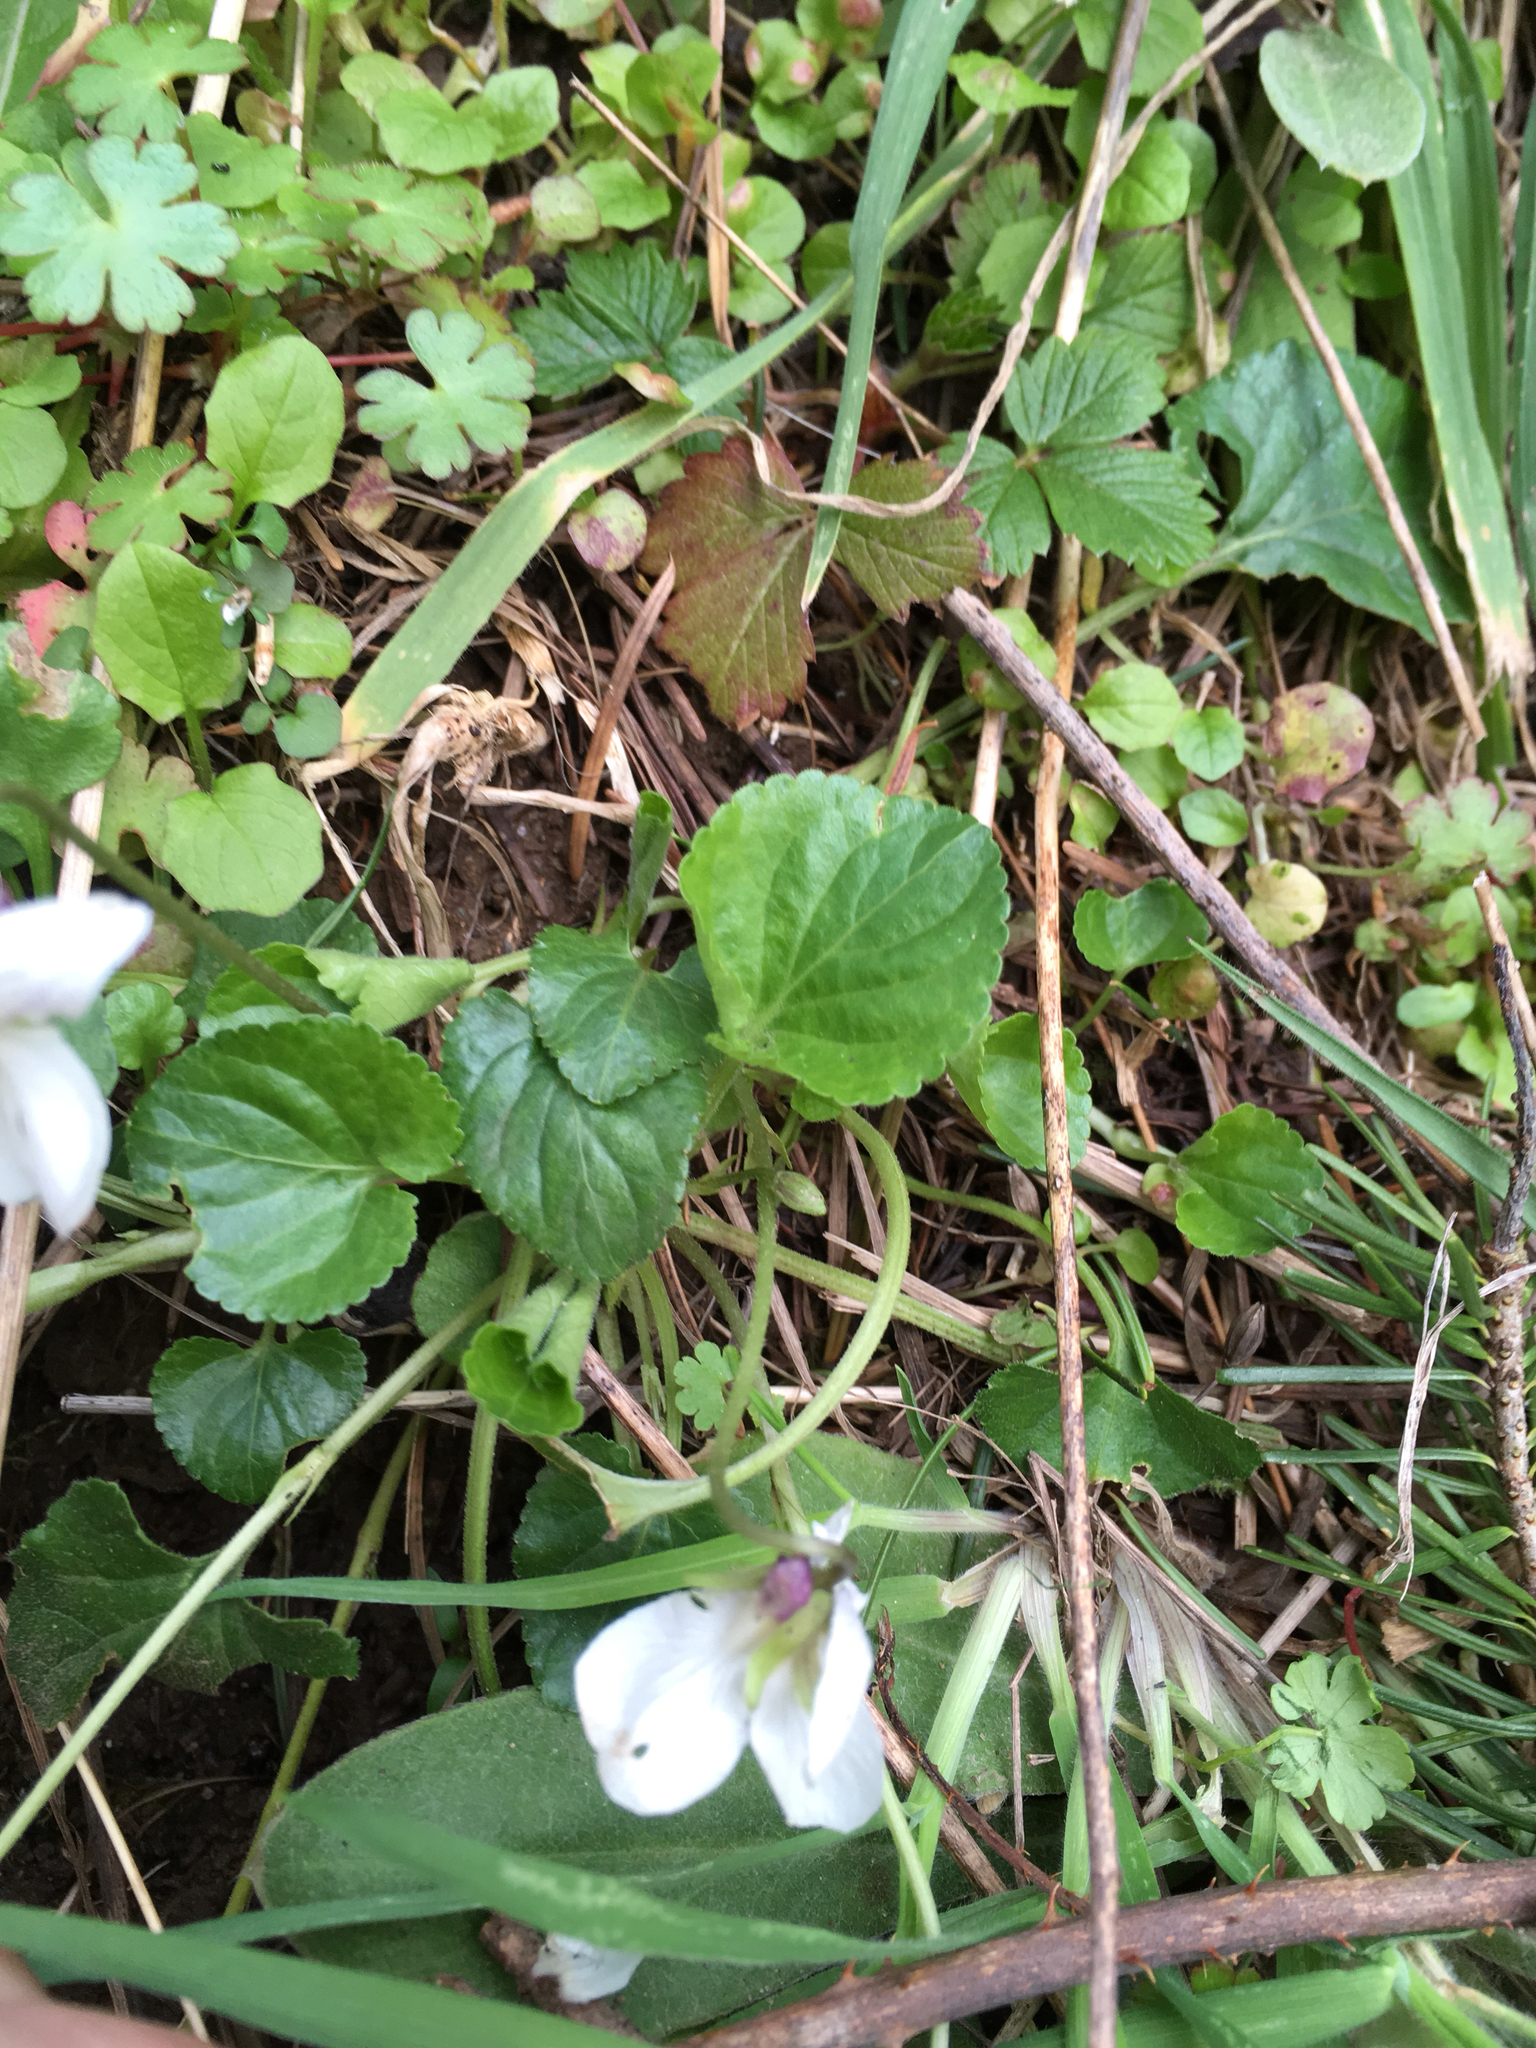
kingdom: Plantae
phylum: Tracheophyta
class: Magnoliopsida
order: Malpighiales
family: Violaceae
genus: Viola
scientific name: Viola odorata
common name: Sweet violet
